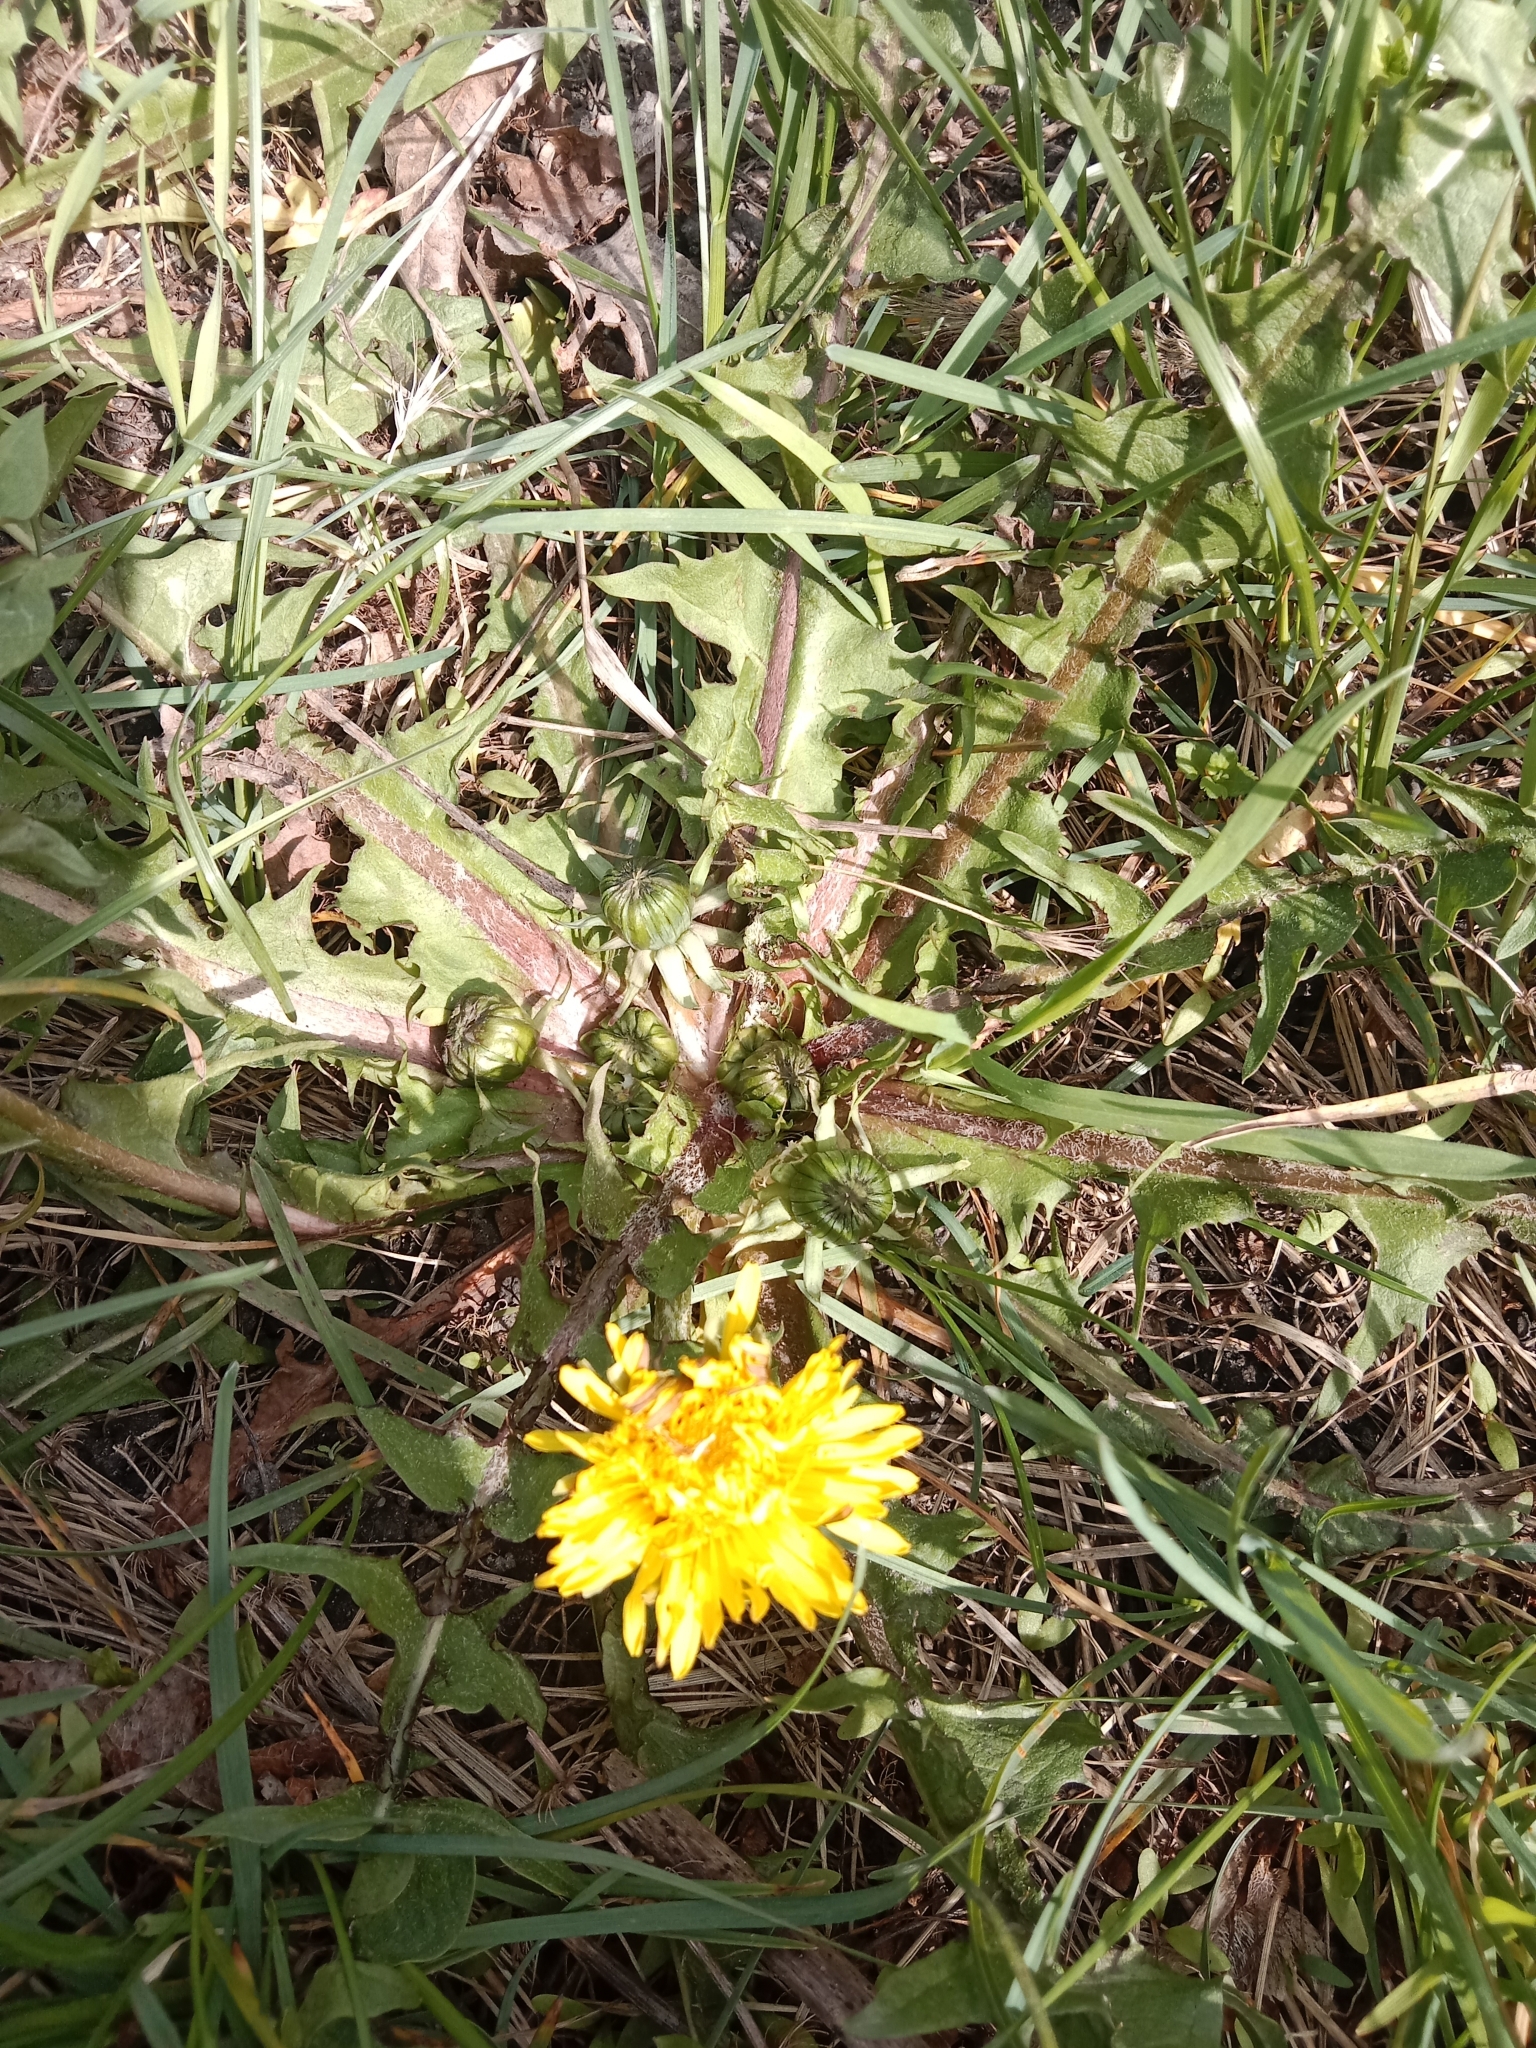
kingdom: Plantae
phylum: Tracheophyta
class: Magnoliopsida
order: Asterales
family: Asteraceae
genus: Taraxacum
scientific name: Taraxacum officinale
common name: Common dandelion
